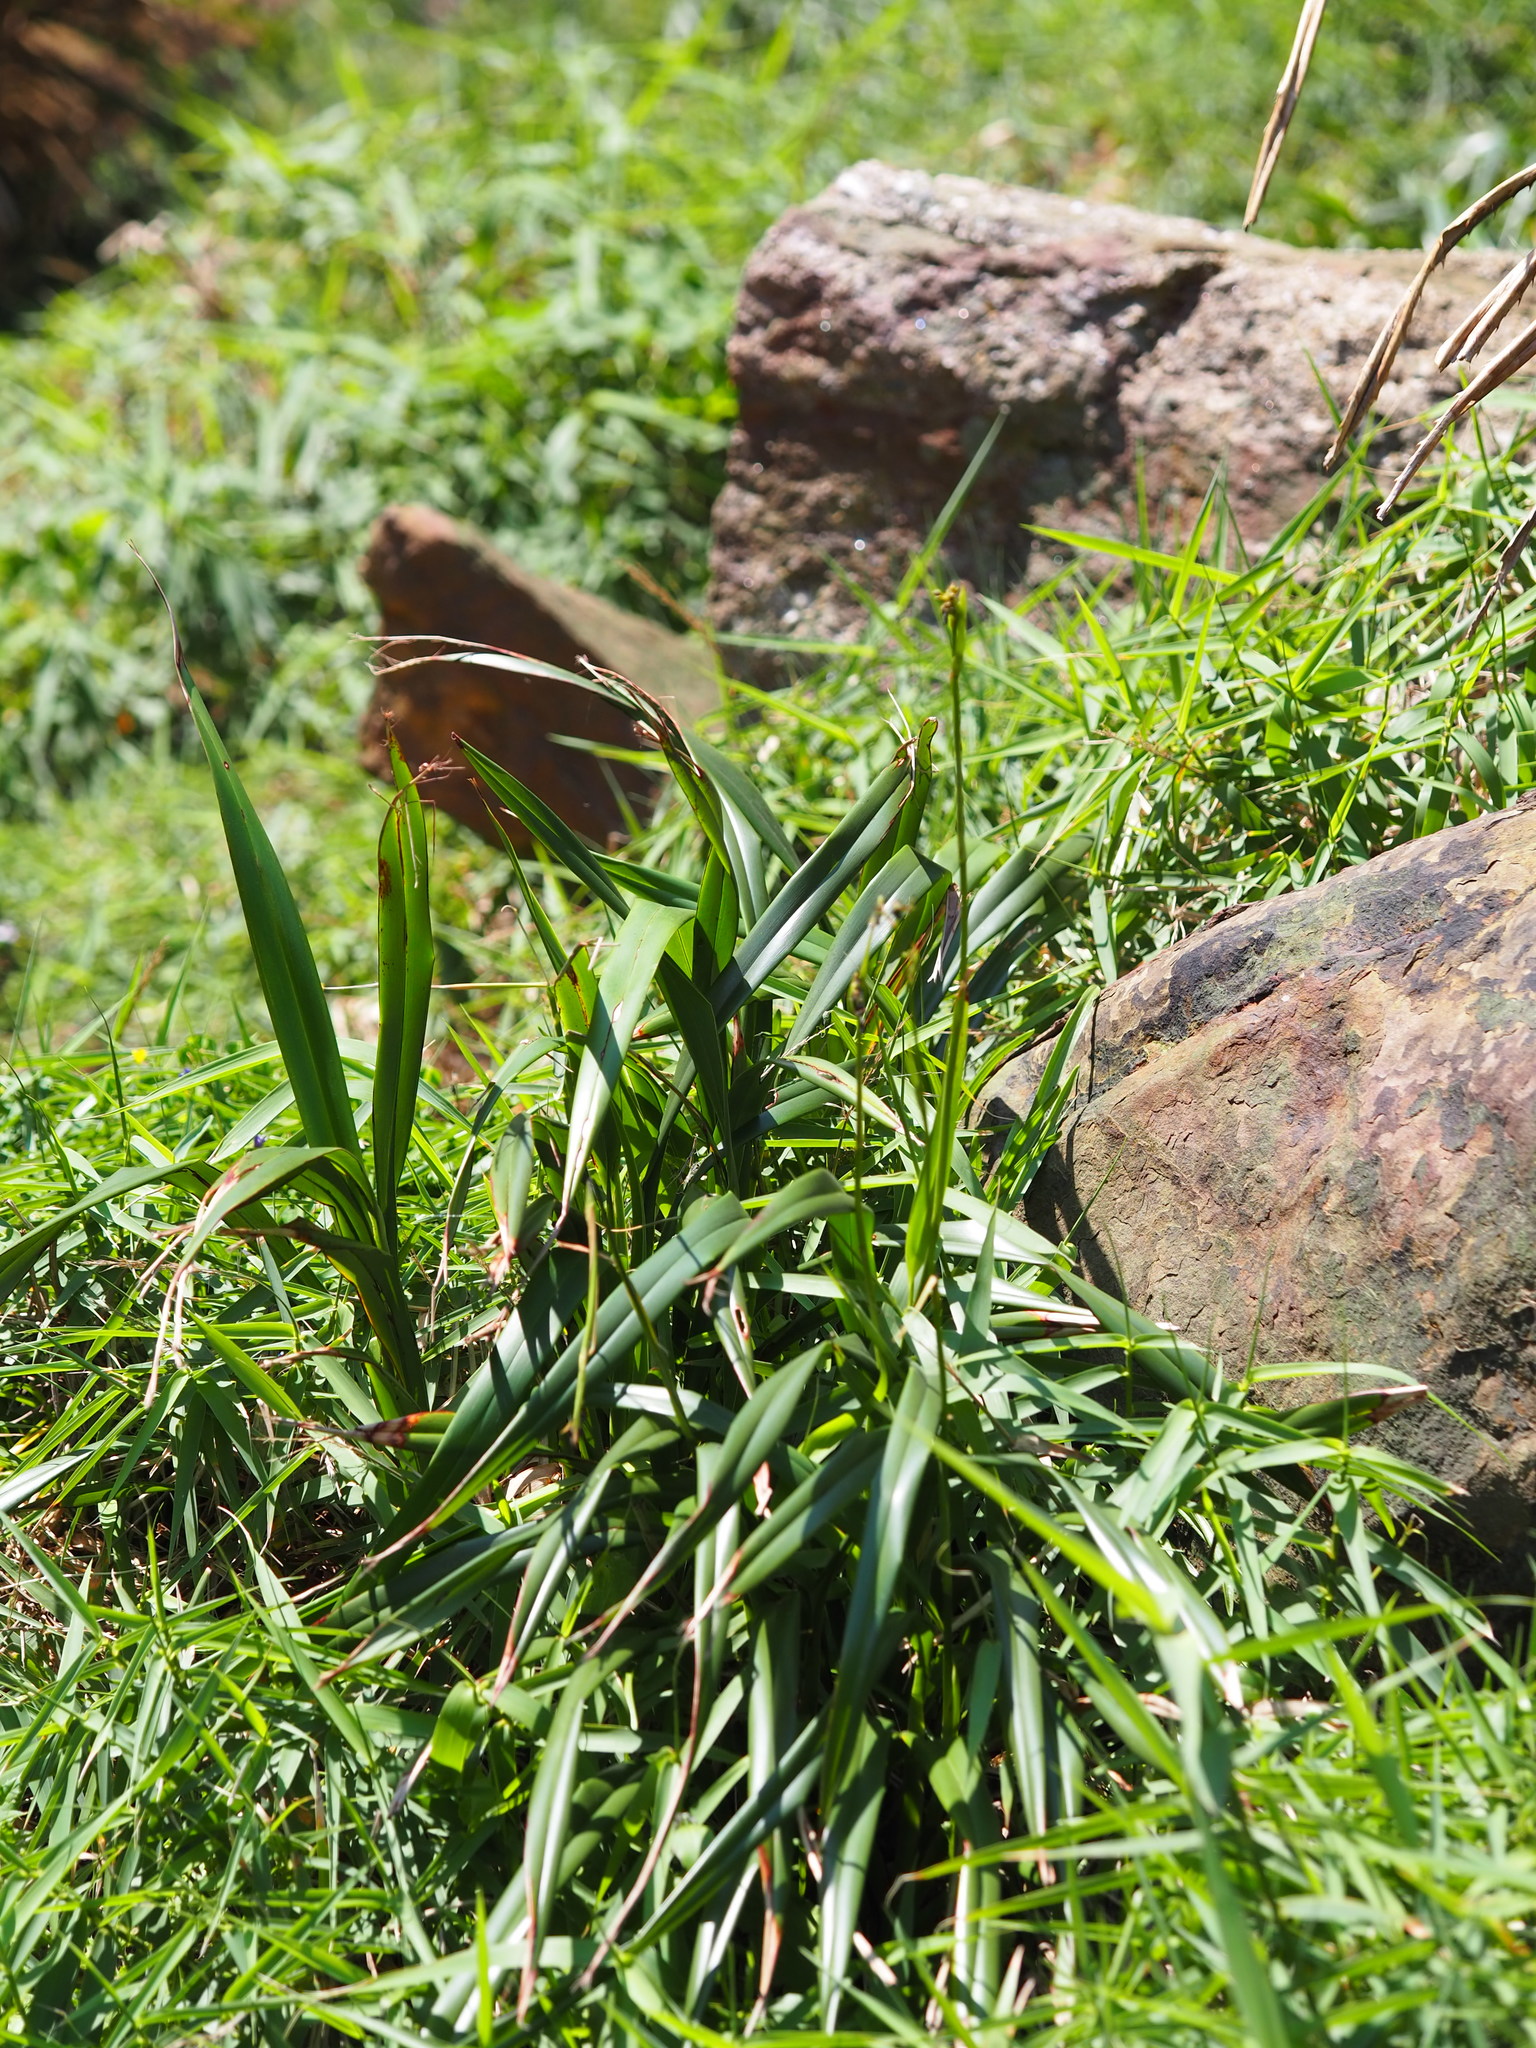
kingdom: Plantae
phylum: Tracheophyta
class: Liliopsida
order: Asparagales
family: Asphodelaceae
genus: Dianella
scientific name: Dianella ensifolia
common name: New zealand lilyplant
